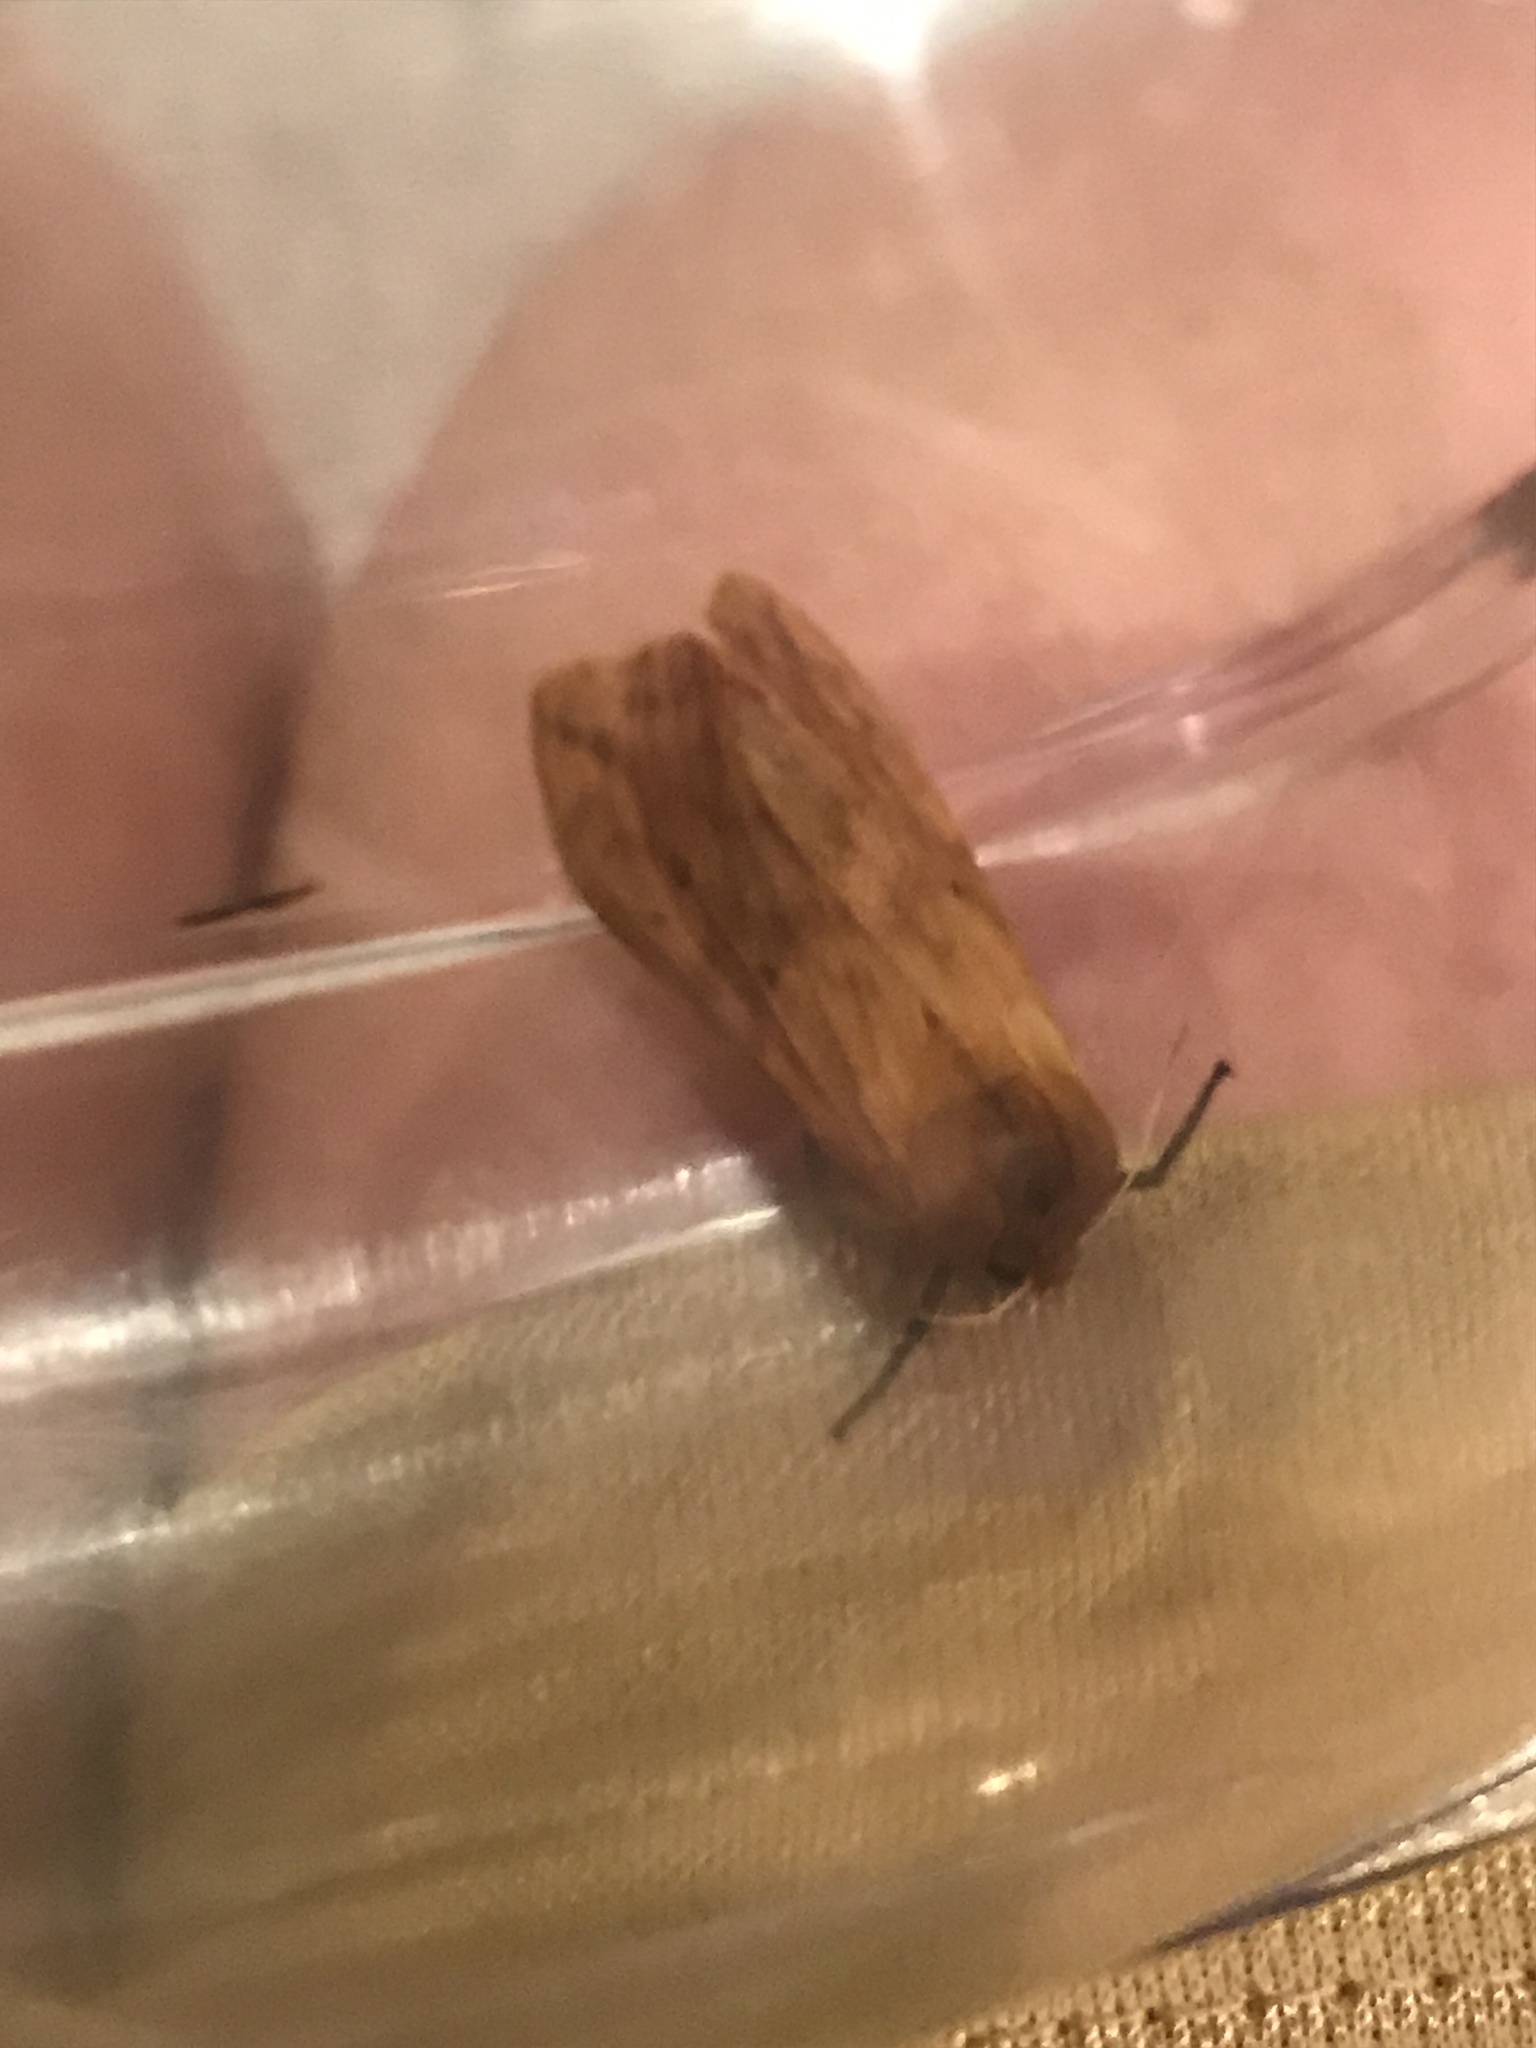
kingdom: Animalia
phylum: Arthropoda
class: Insecta
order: Lepidoptera
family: Erebidae
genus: Pyrrharctia
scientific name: Pyrrharctia isabella
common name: Isabella tiger moth
